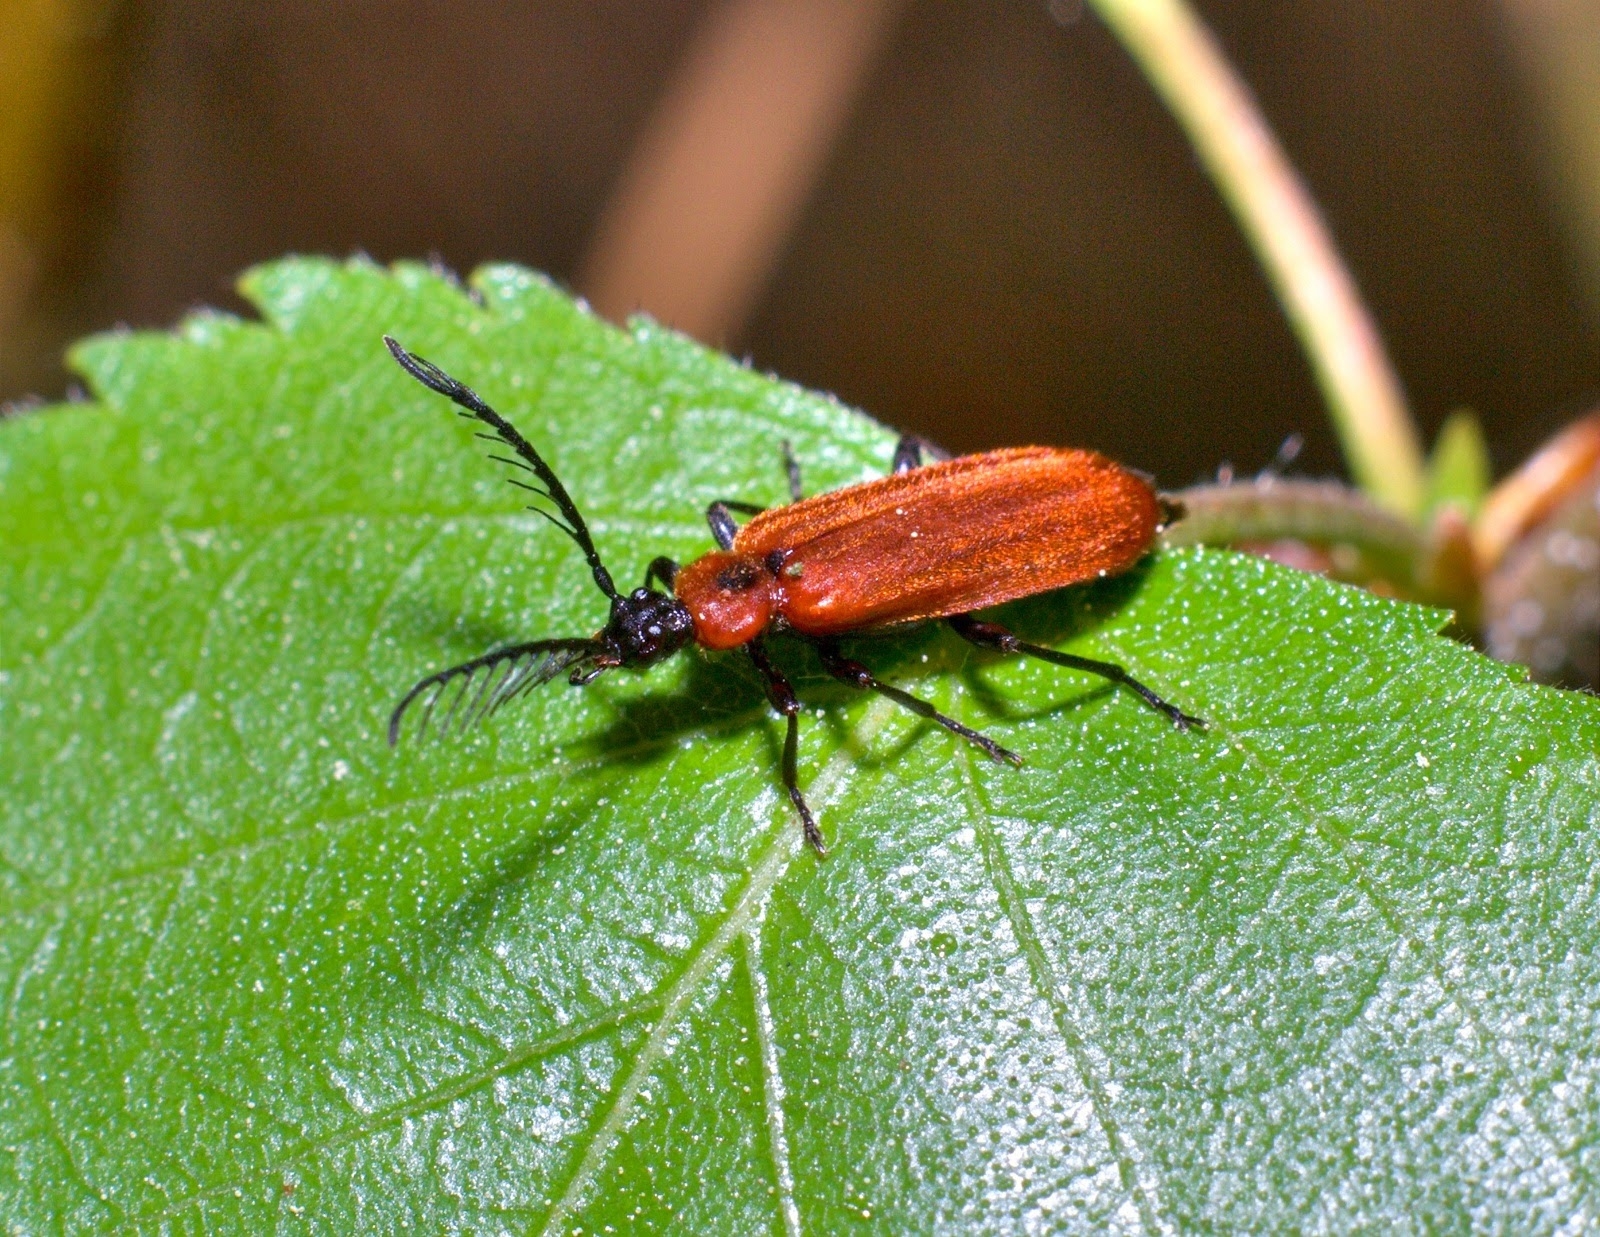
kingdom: Animalia
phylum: Arthropoda
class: Insecta
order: Coleoptera
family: Pyrochroidae
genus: Schizotus
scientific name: Schizotus pectinicornis
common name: Scarce cardinal beetle
